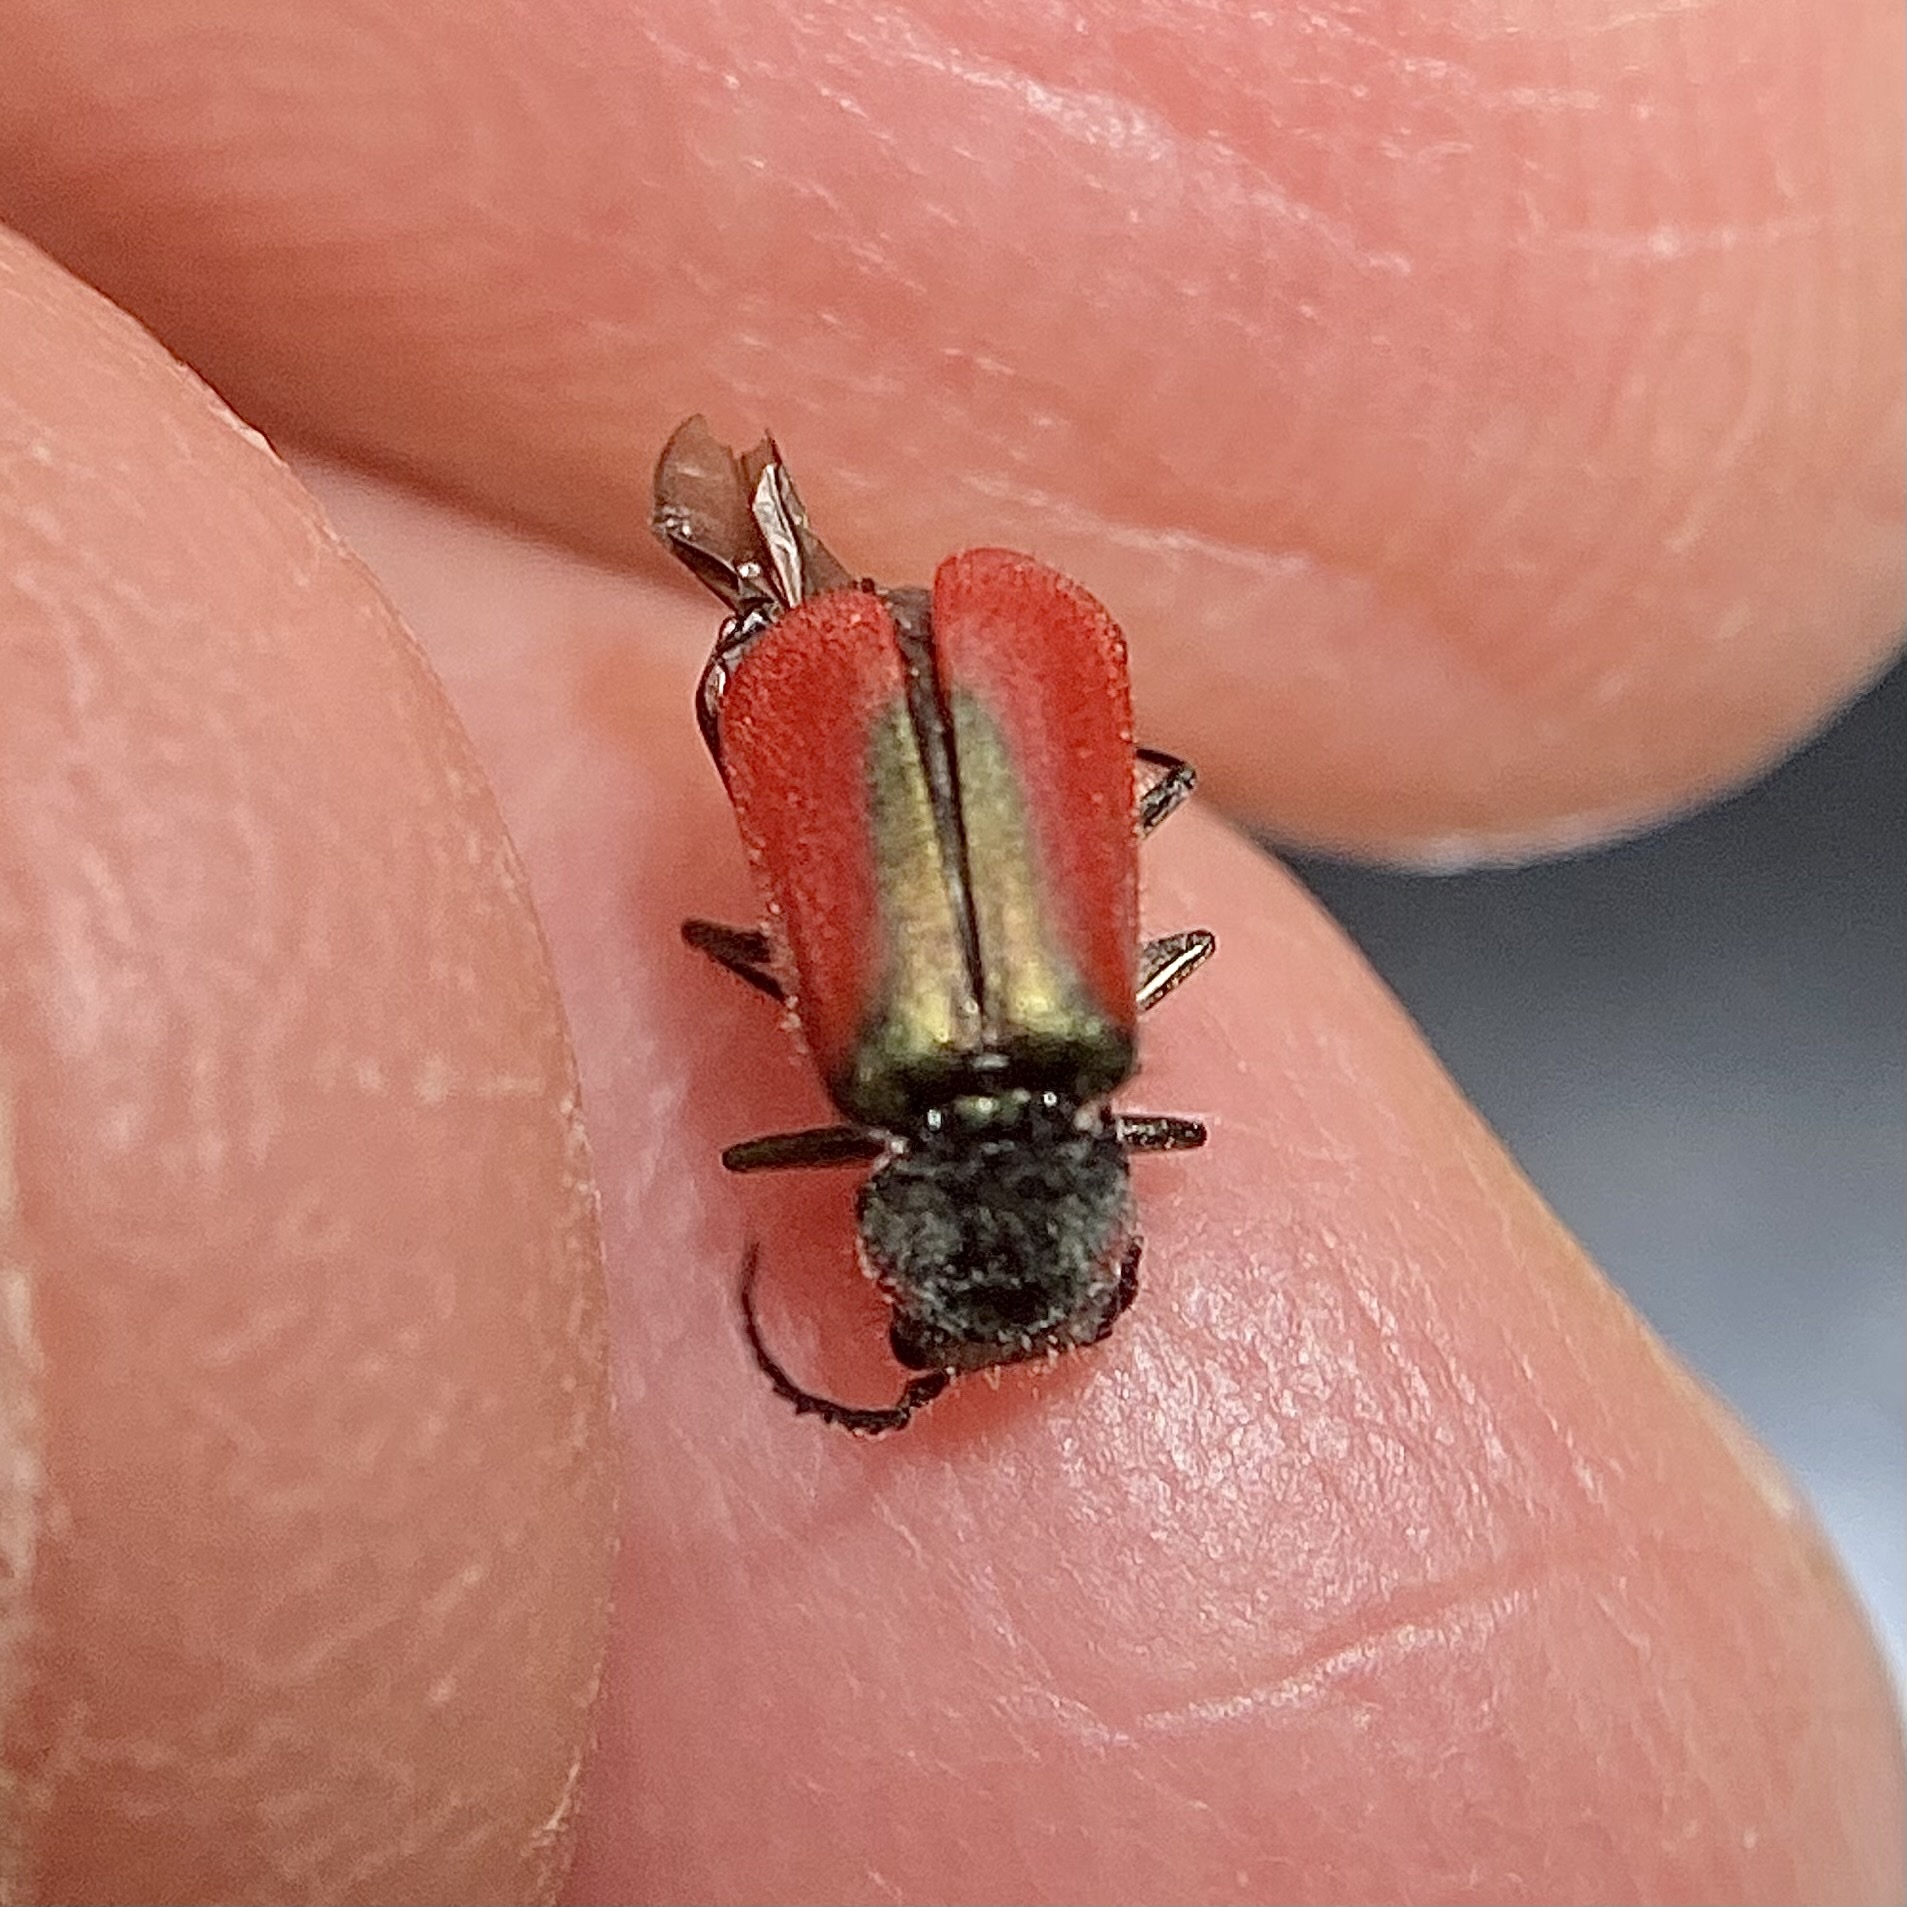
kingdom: Animalia
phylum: Arthropoda
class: Insecta
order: Coleoptera
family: Melyridae
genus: Malachius
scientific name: Malachius aeneus
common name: Scarlet malachite beetle
